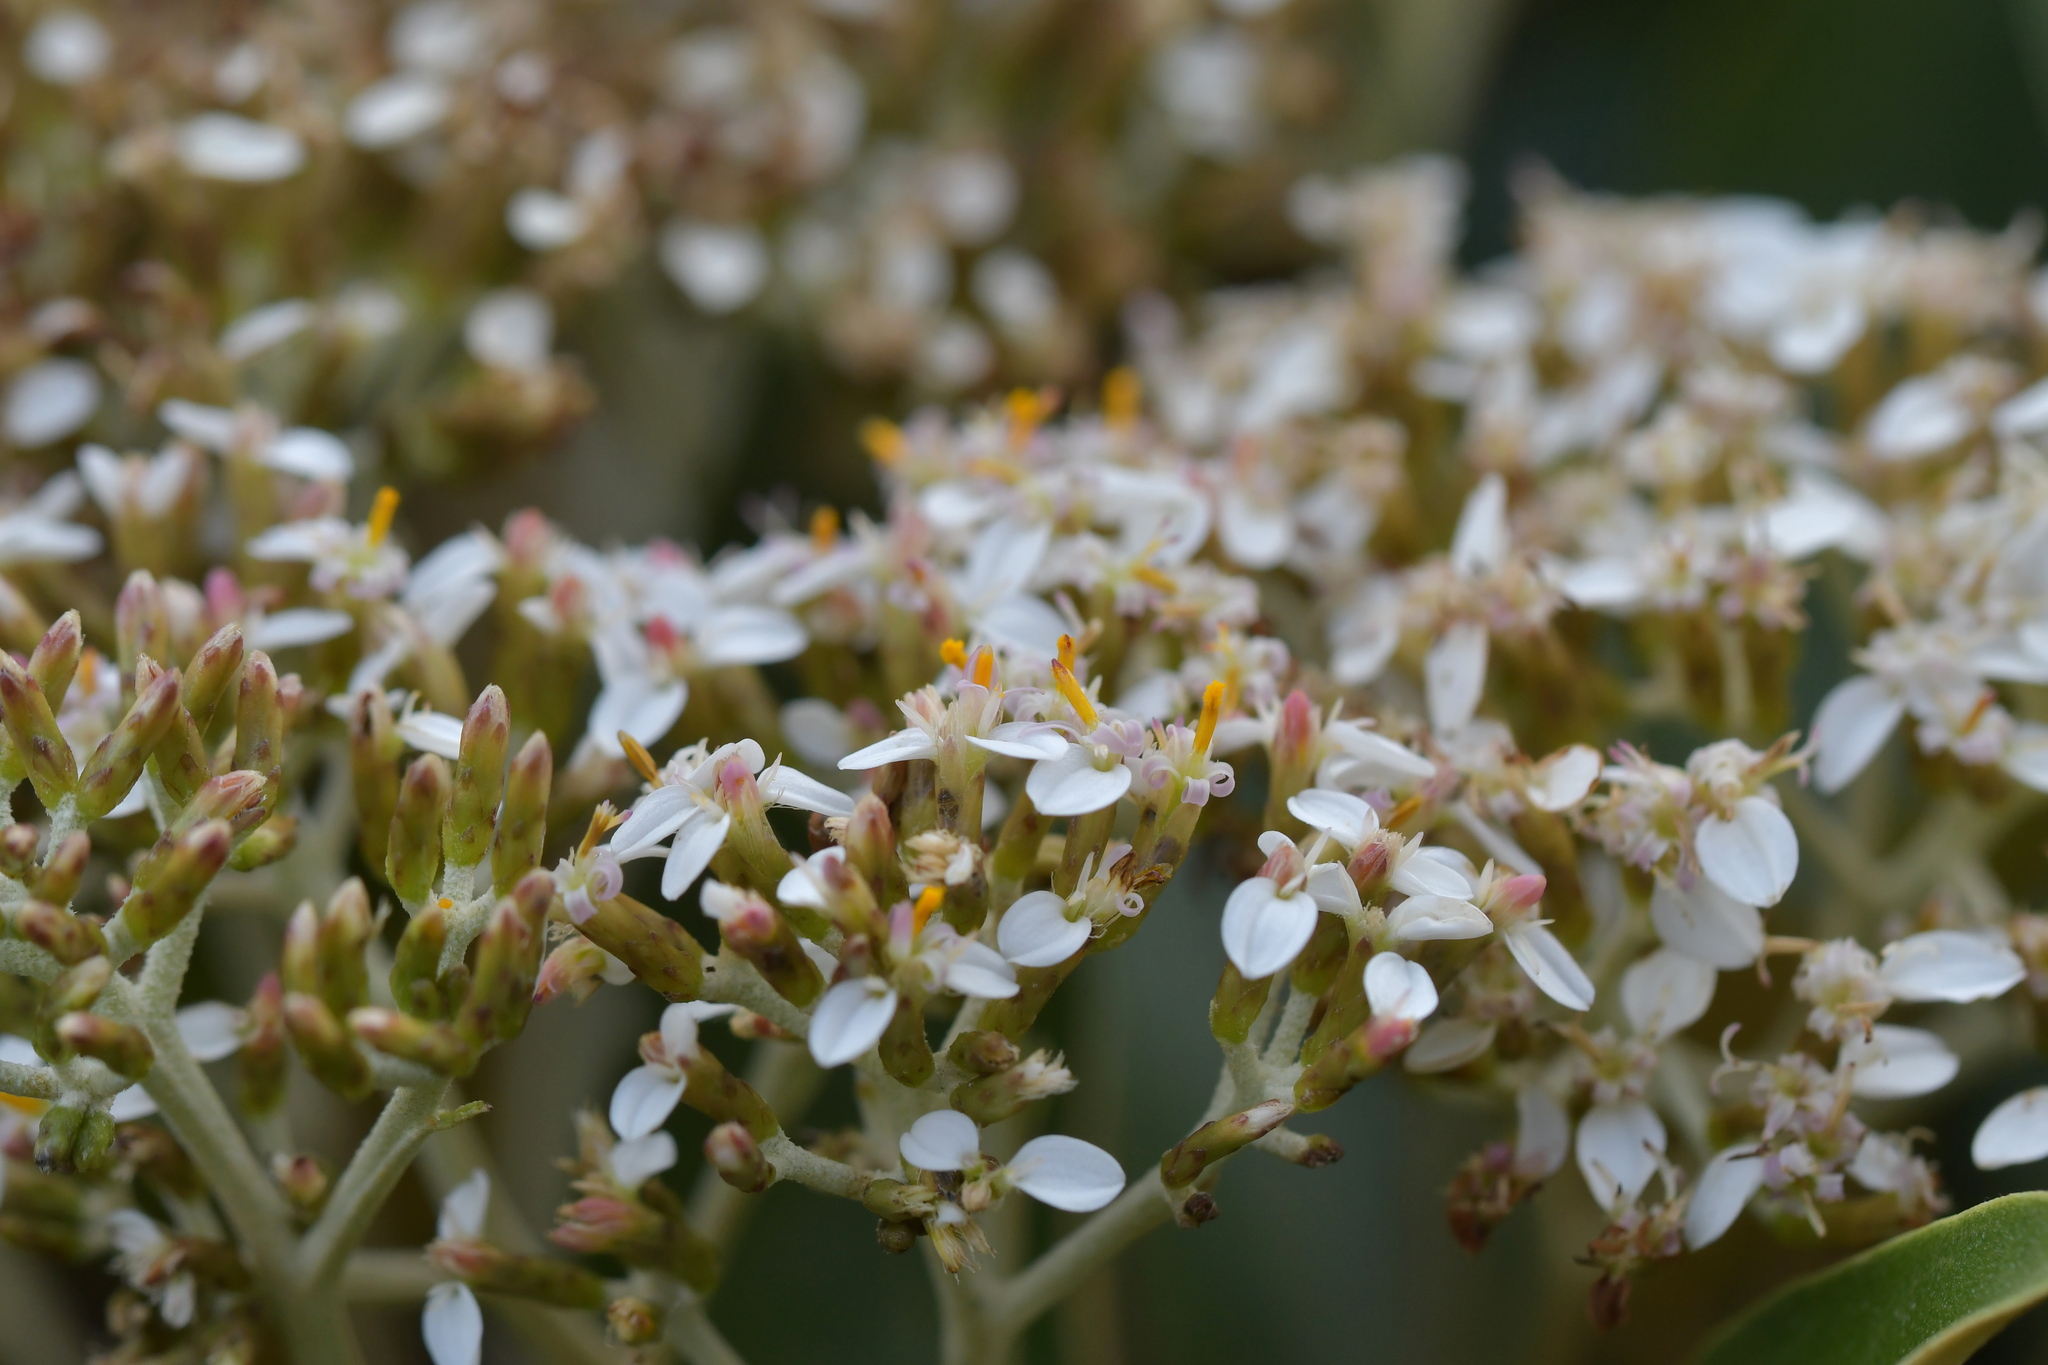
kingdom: Plantae
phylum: Tracheophyta
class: Magnoliopsida
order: Asterales
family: Asteraceae
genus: Olearia
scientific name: Olearia avicenniifolia
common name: Mangrove-leaf daisybush
